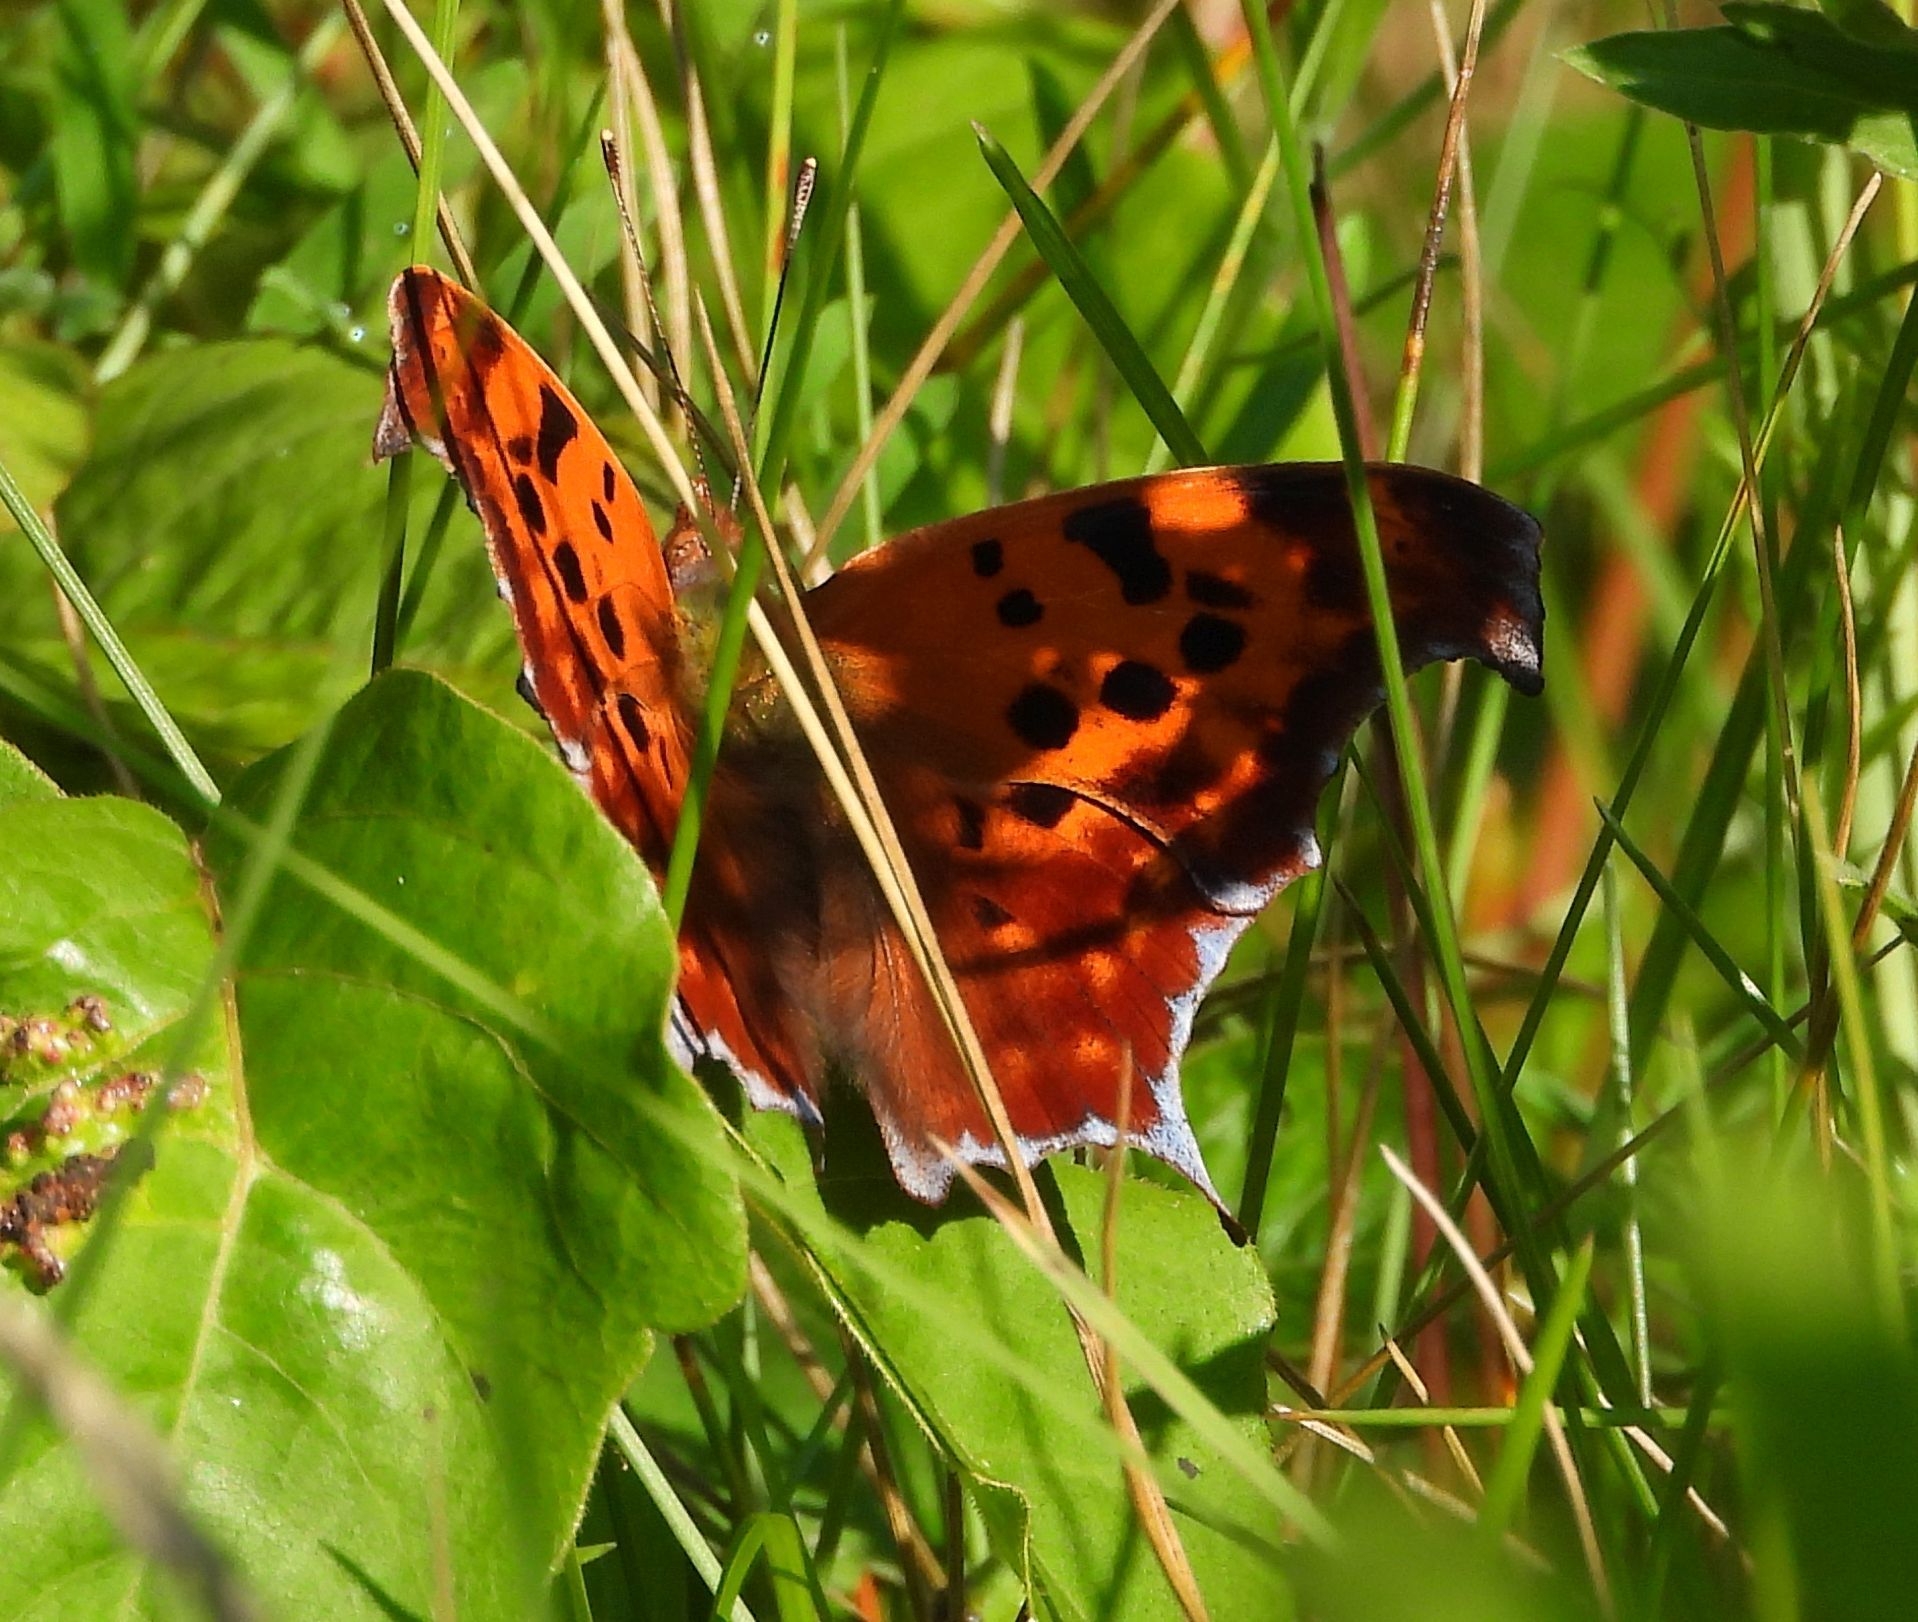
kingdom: Animalia
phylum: Arthropoda
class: Insecta
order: Lepidoptera
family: Nymphalidae
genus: Polygonia
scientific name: Polygonia interrogationis
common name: Question mark
